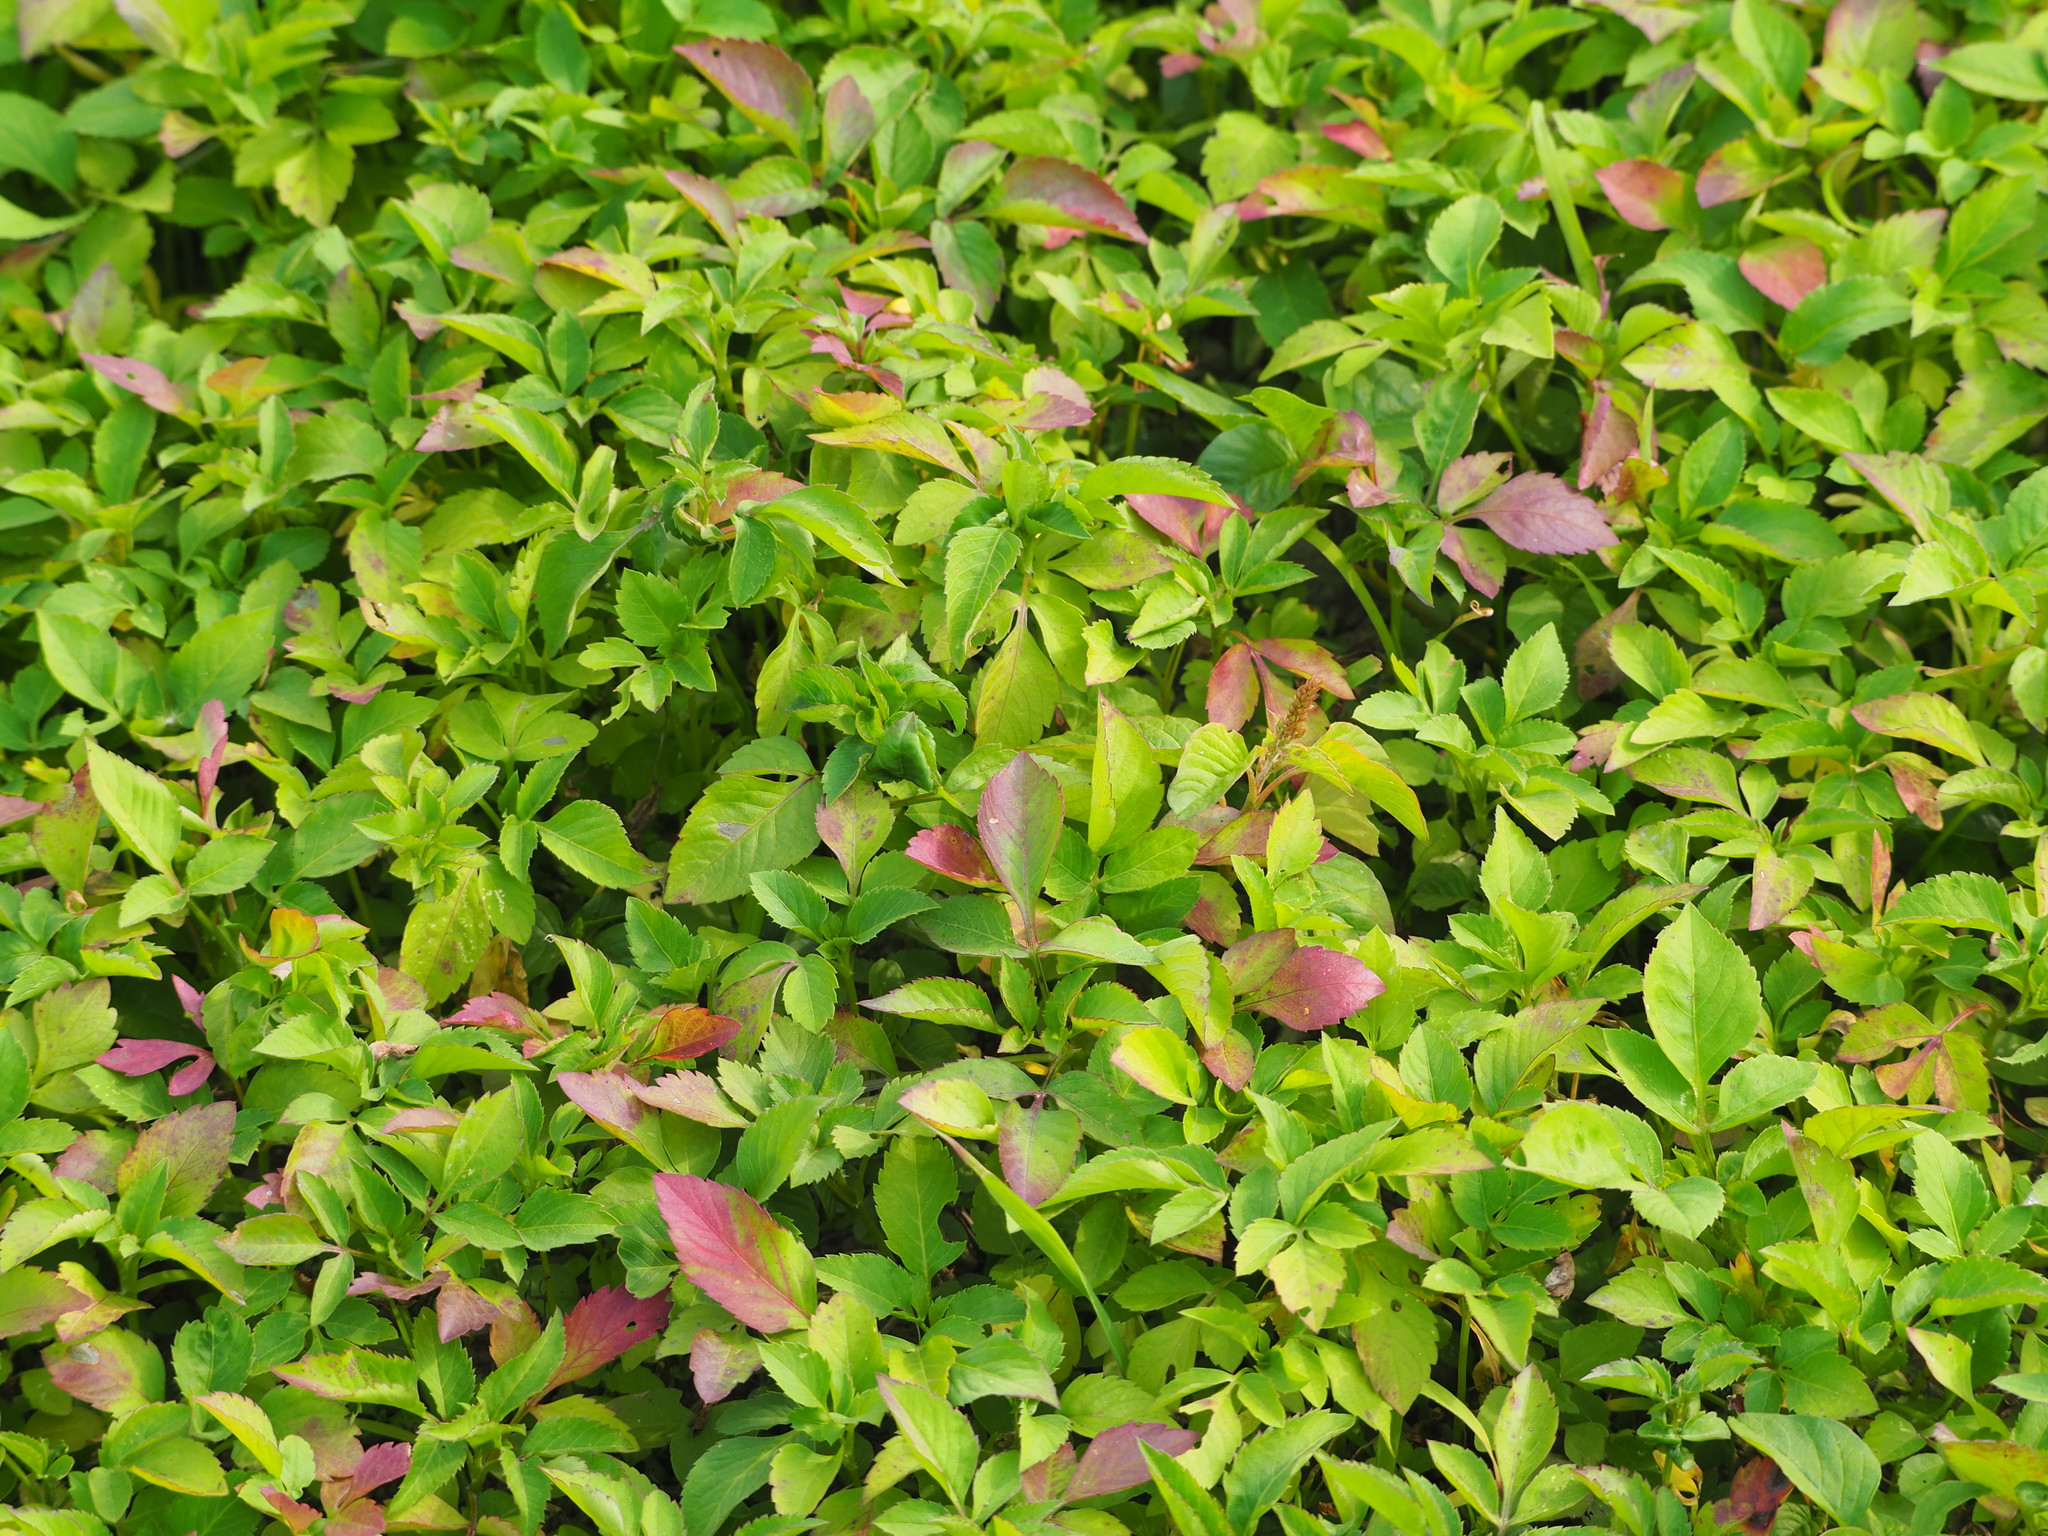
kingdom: Plantae
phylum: Tracheophyta
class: Magnoliopsida
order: Asterales
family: Asteraceae
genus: Bidens
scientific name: Bidens alba
